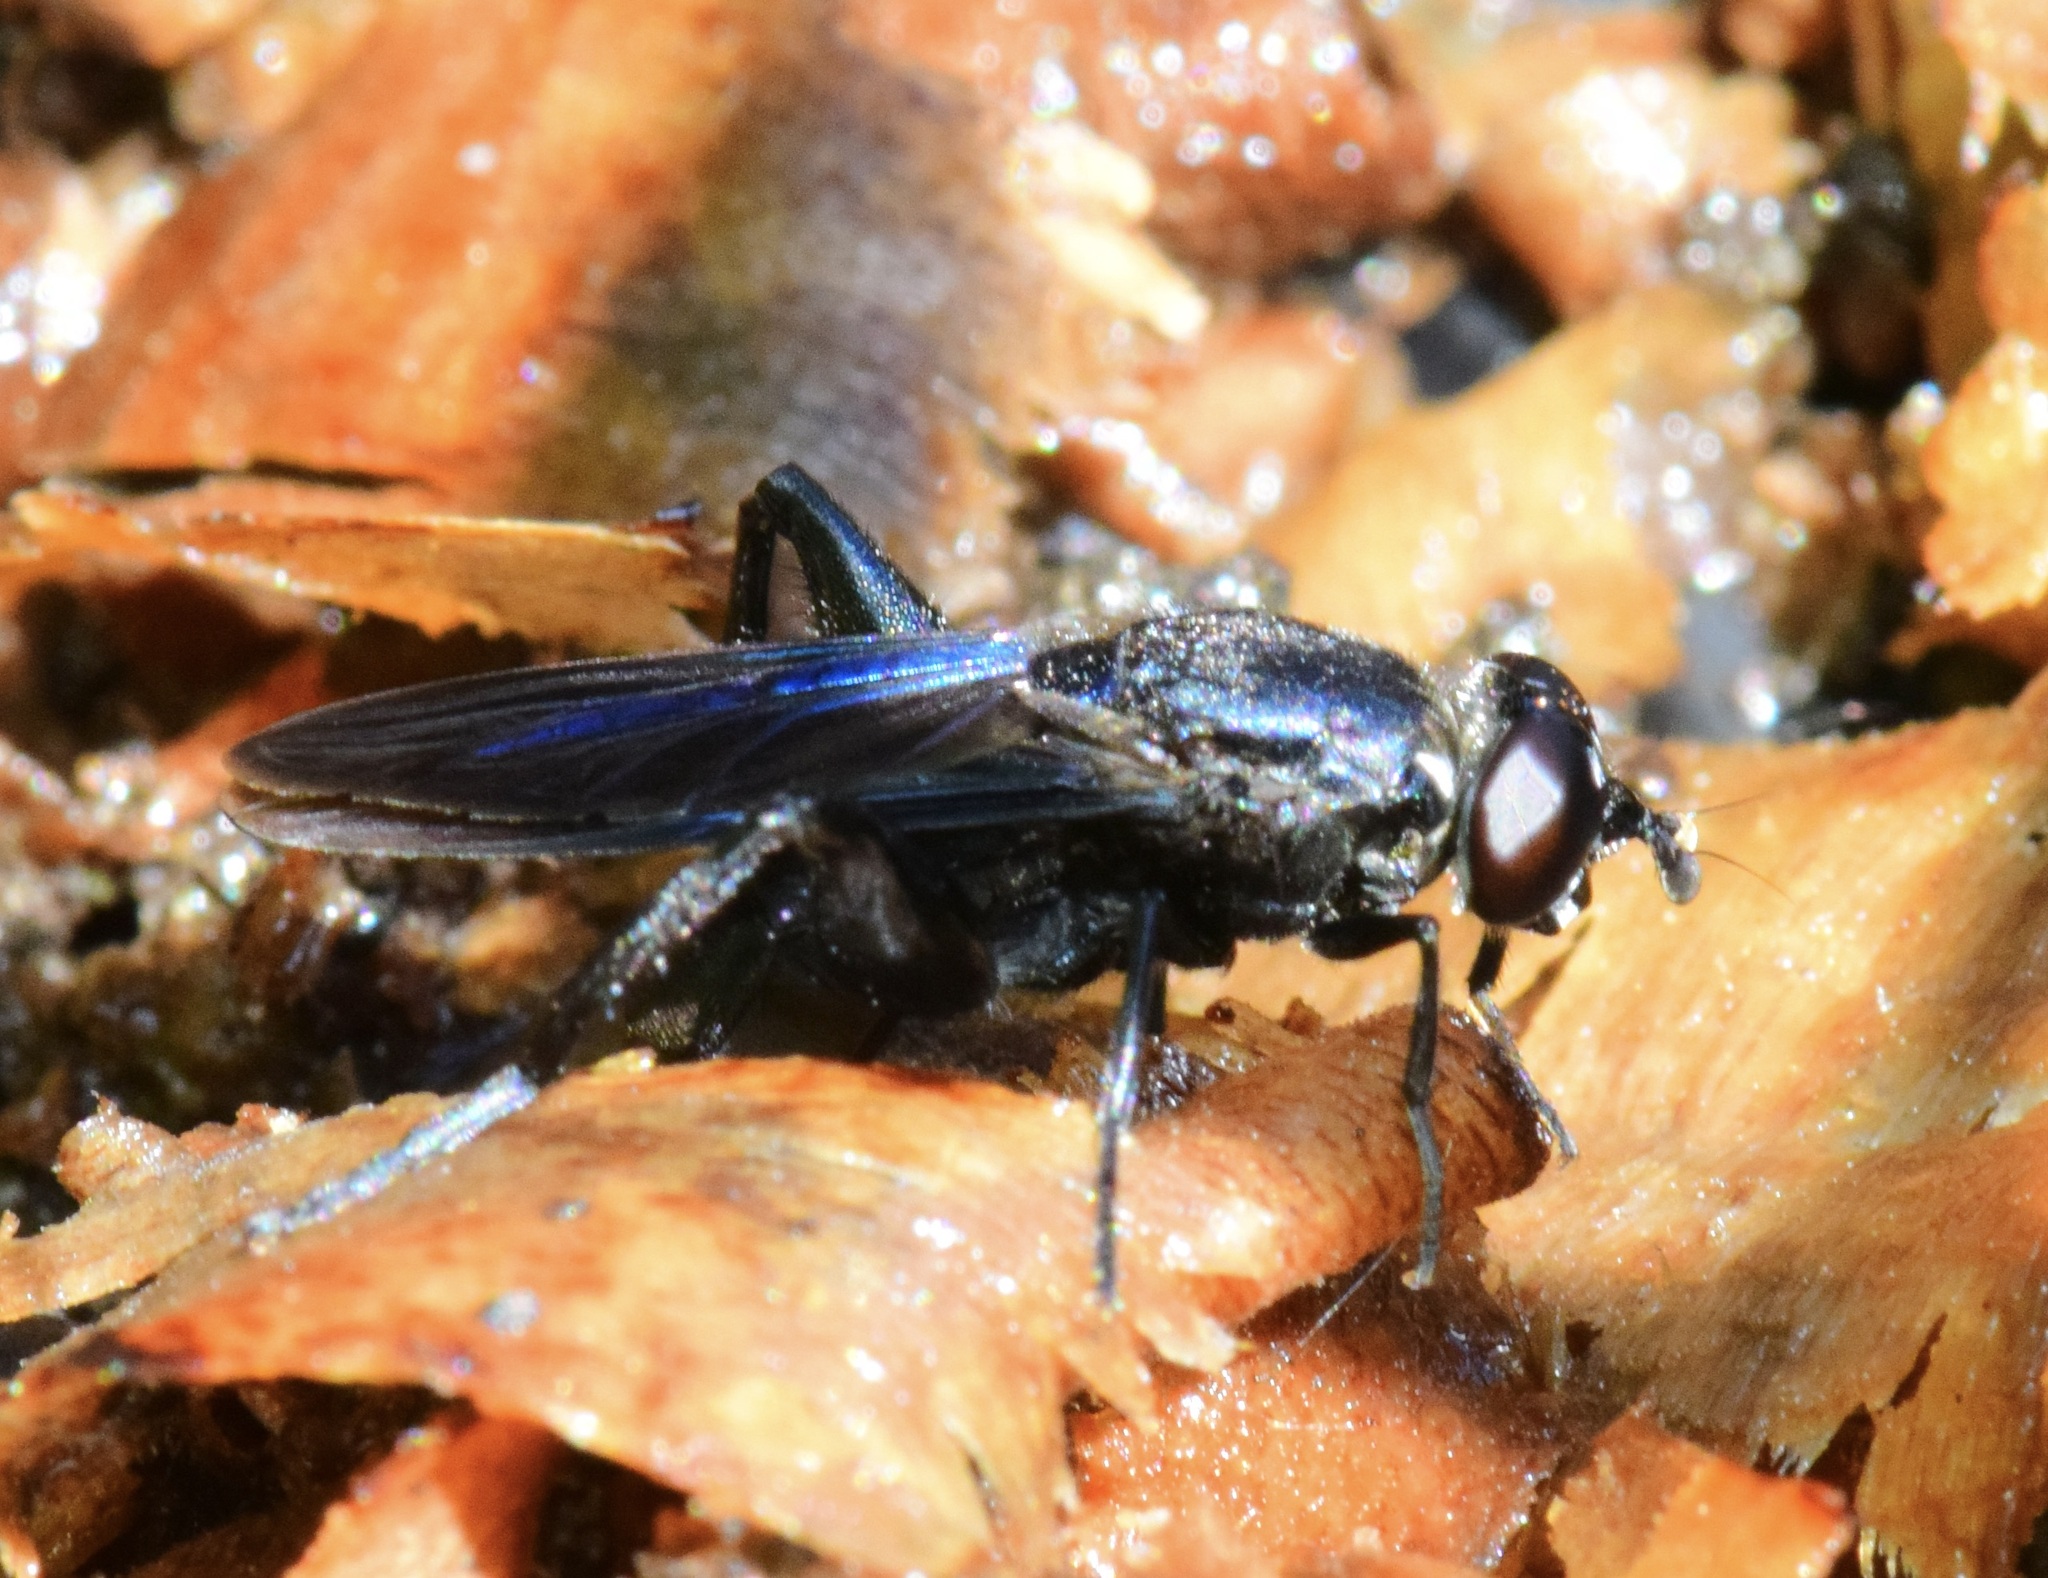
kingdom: Animalia
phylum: Arthropoda
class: Insecta
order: Diptera
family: Syrphidae
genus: Chalcosyrphus
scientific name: Chalcosyrphus chalybeus
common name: Violet leafwalker
